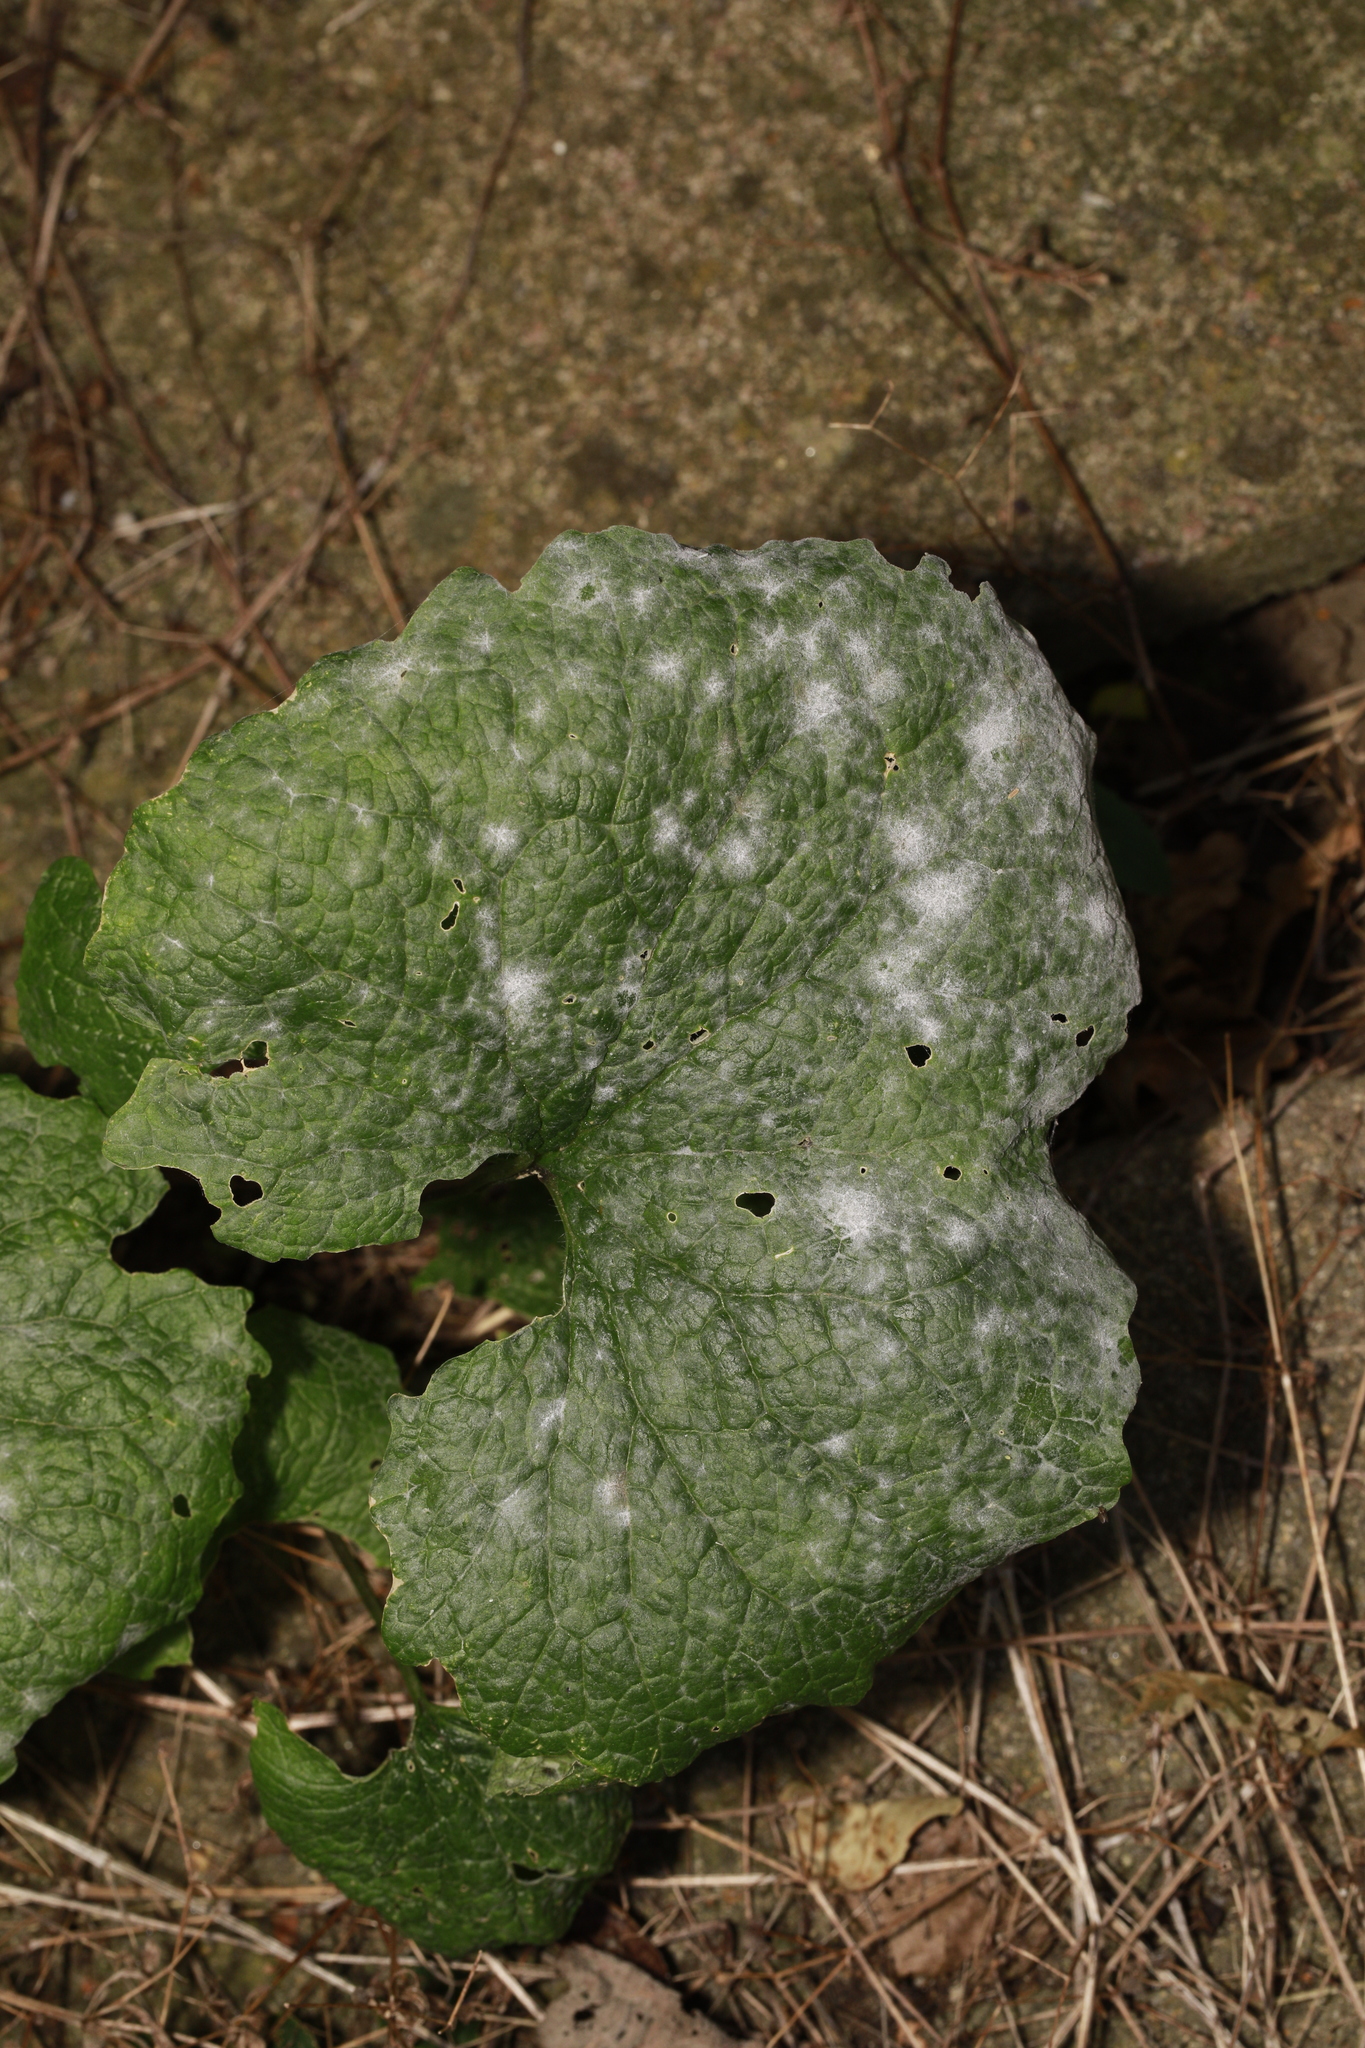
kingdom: Plantae
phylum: Tracheophyta
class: Magnoliopsida
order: Brassicales
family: Brassicaceae
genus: Alliaria
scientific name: Alliaria petiolata
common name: Garlic mustard
